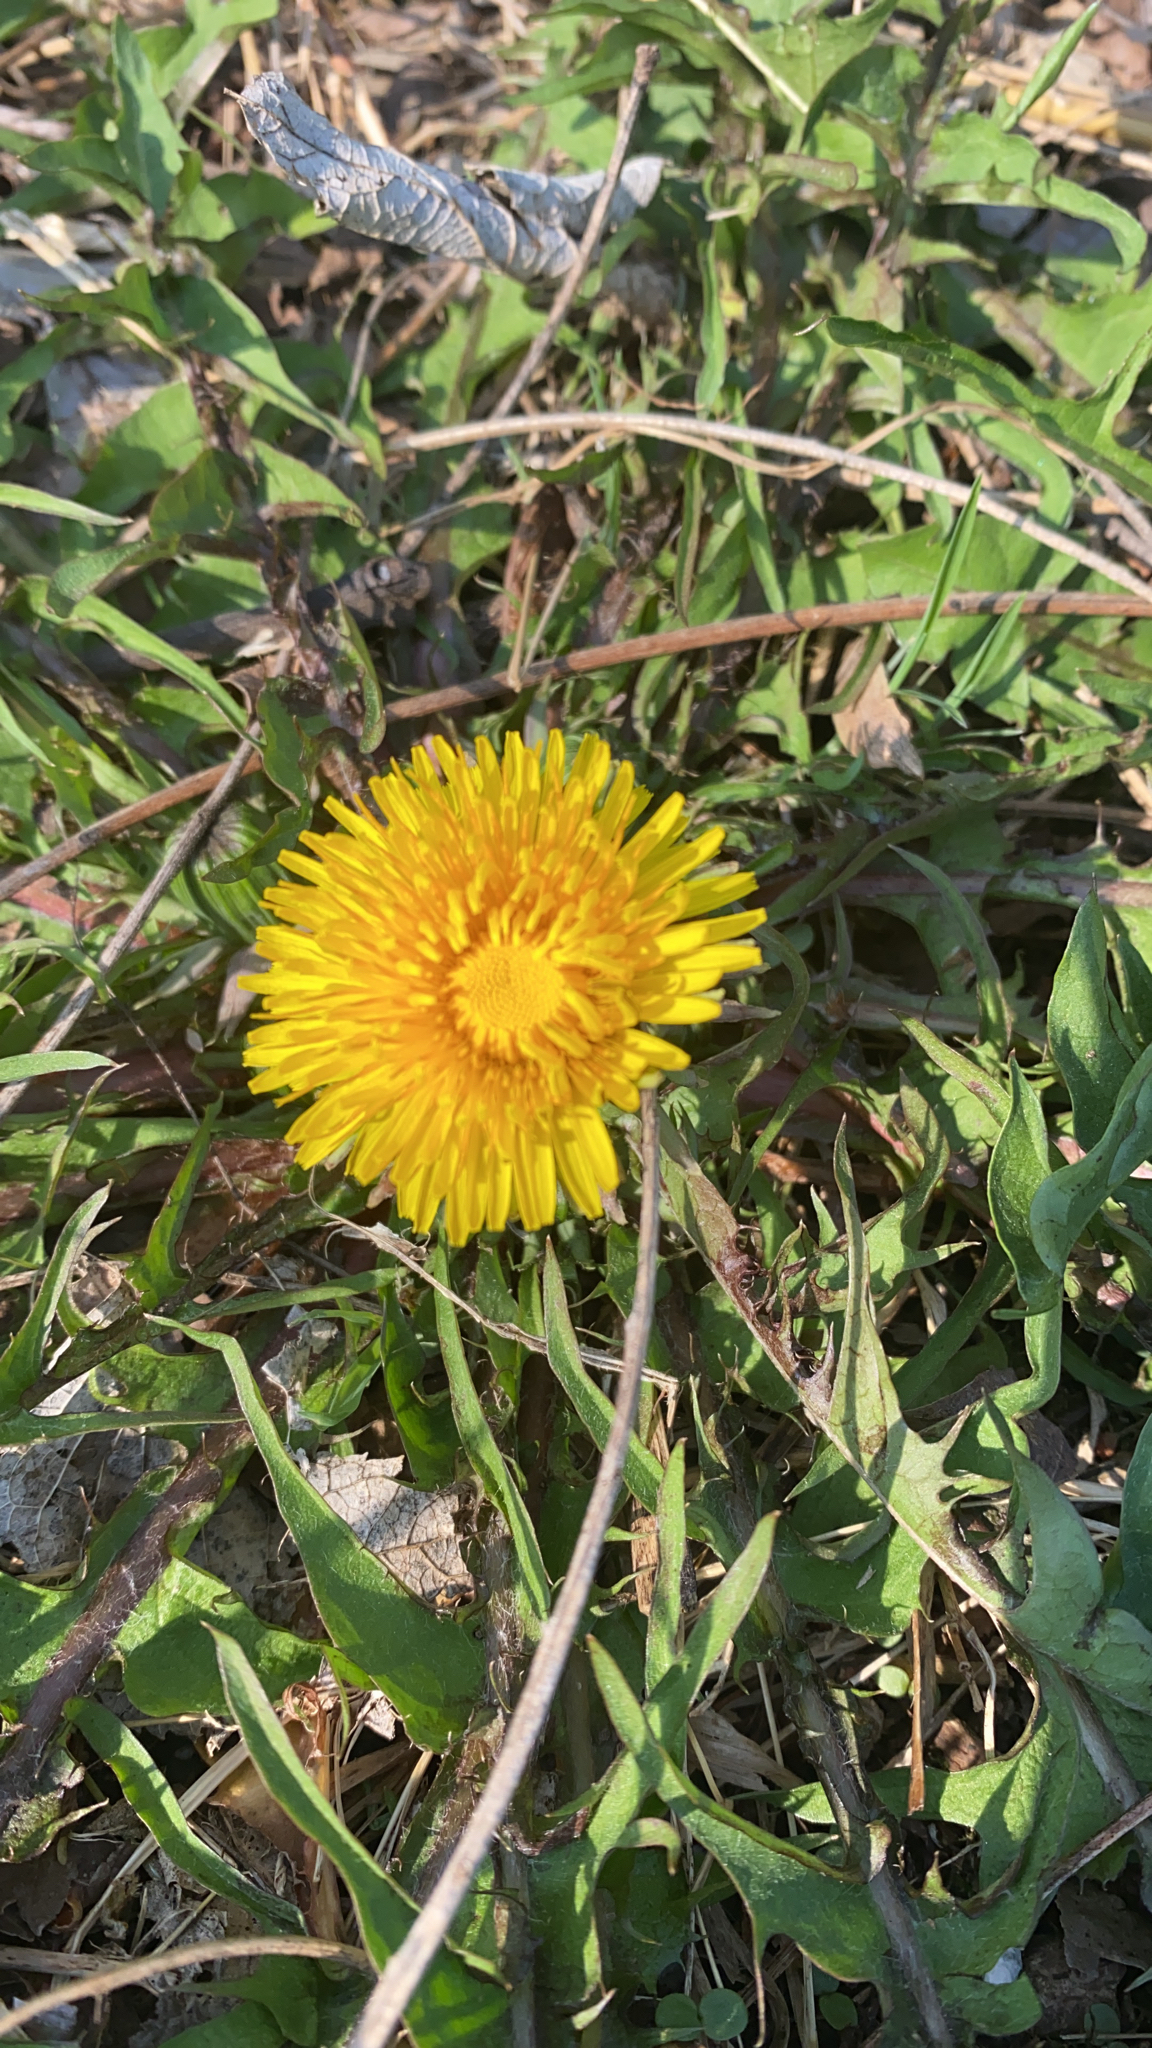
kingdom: Plantae
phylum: Tracheophyta
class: Magnoliopsida
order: Asterales
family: Asteraceae
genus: Taraxacum
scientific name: Taraxacum officinale
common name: Common dandelion
